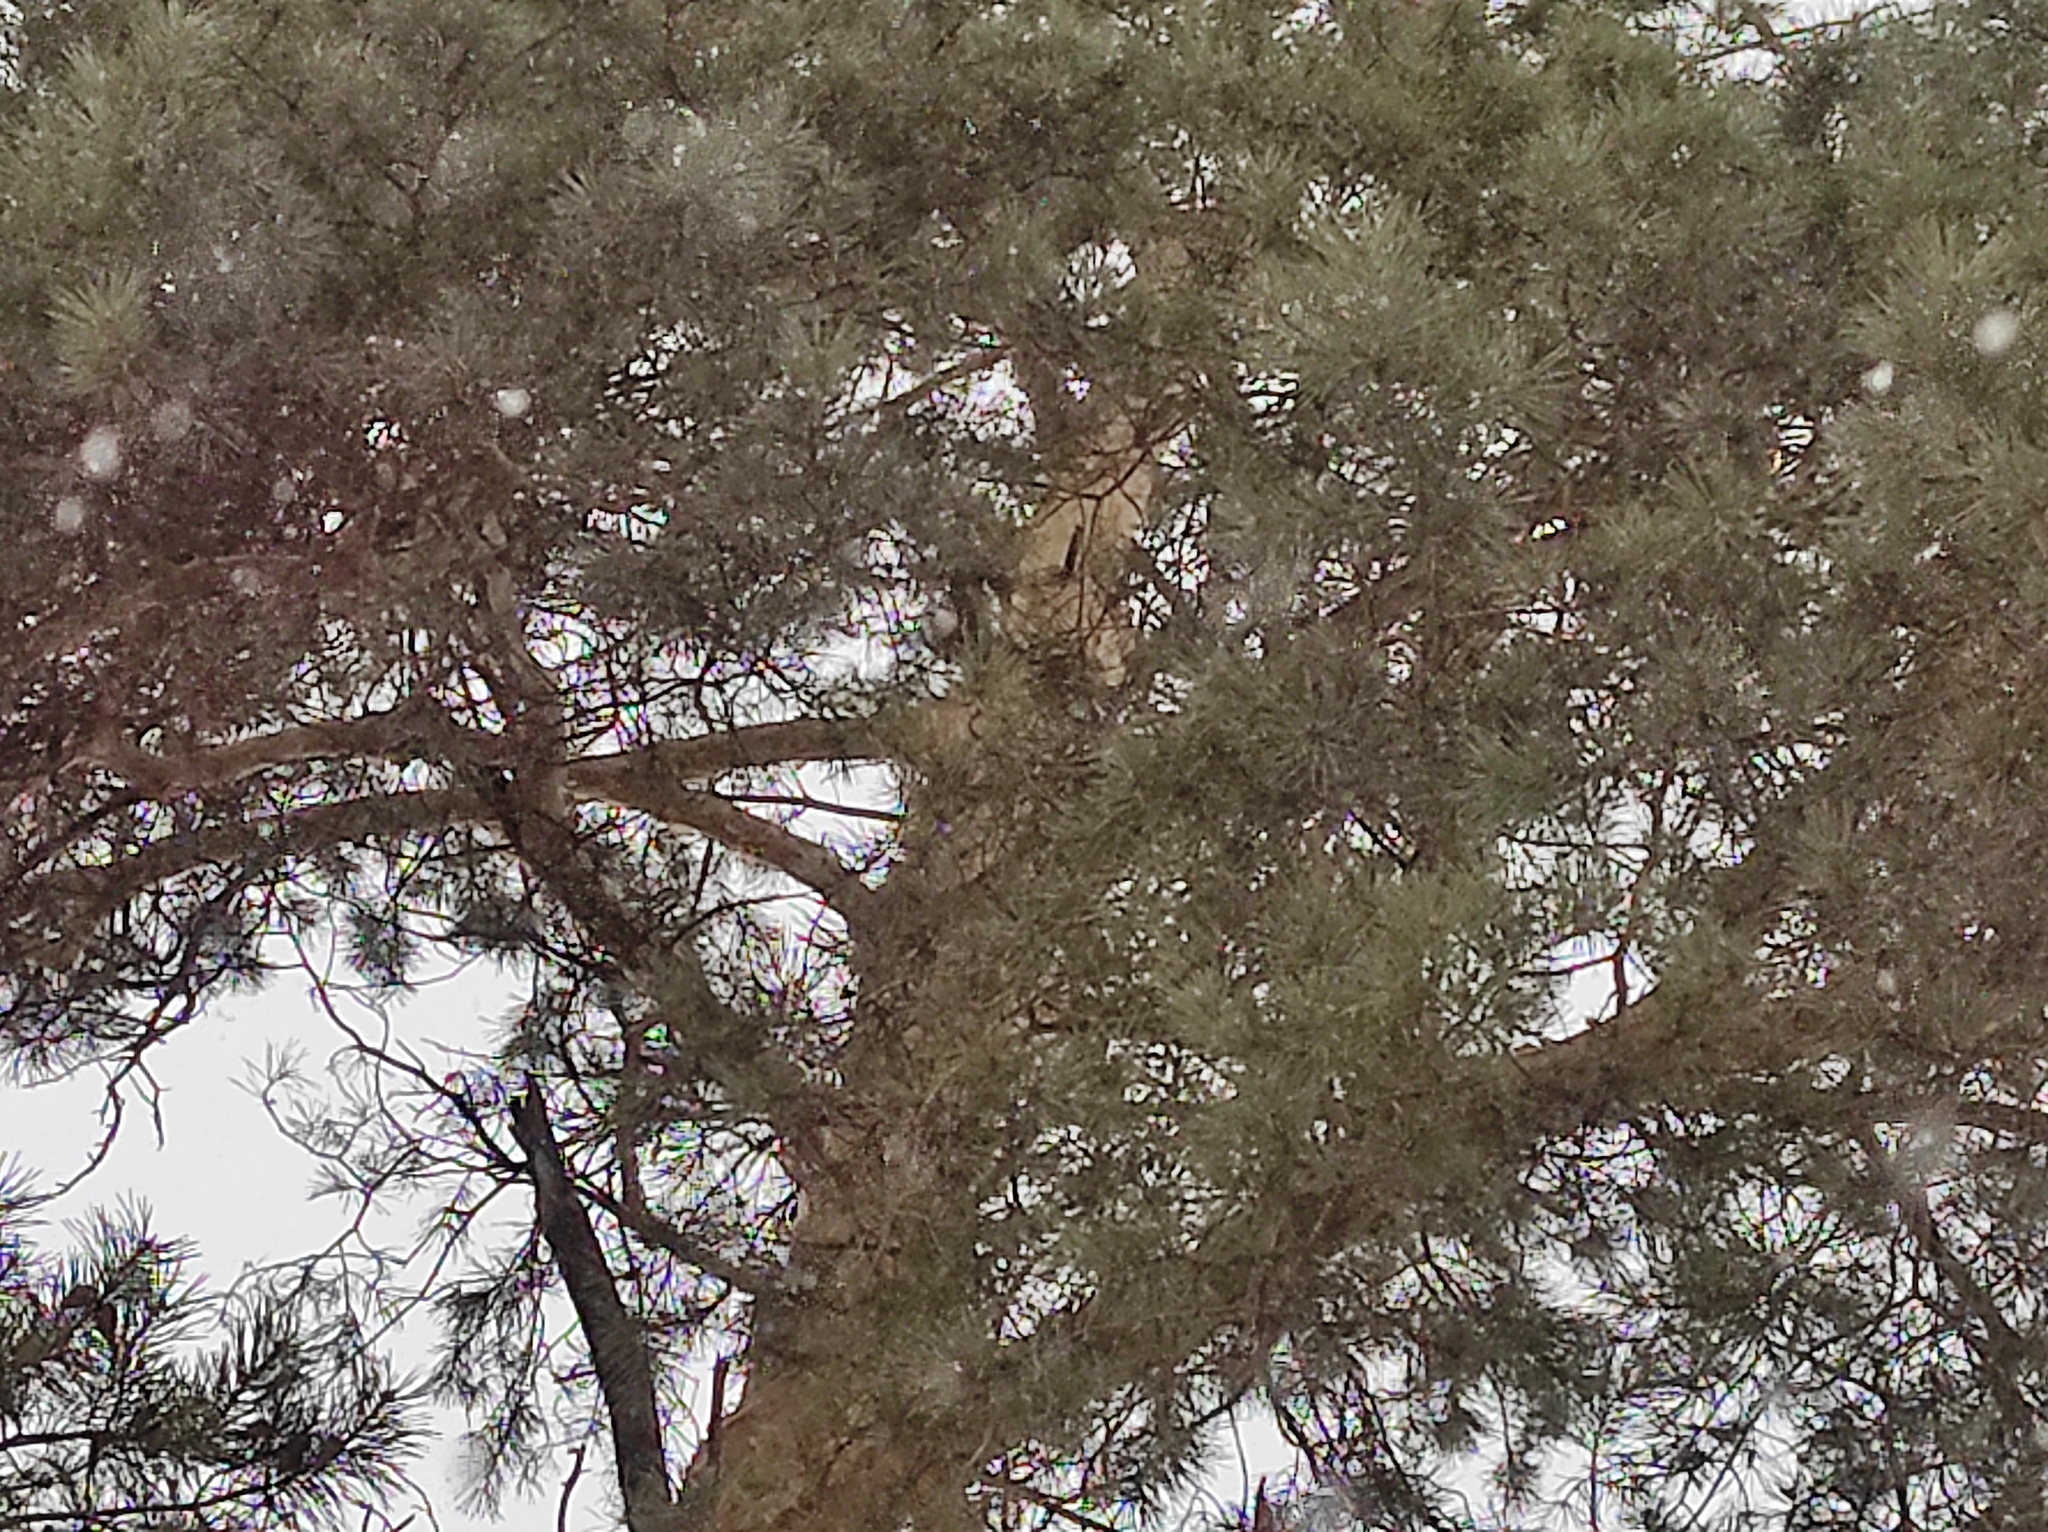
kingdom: Plantae
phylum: Tracheophyta
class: Pinopsida
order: Pinales
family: Pinaceae
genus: Pinus
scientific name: Pinus sylvestris
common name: Scots pine
